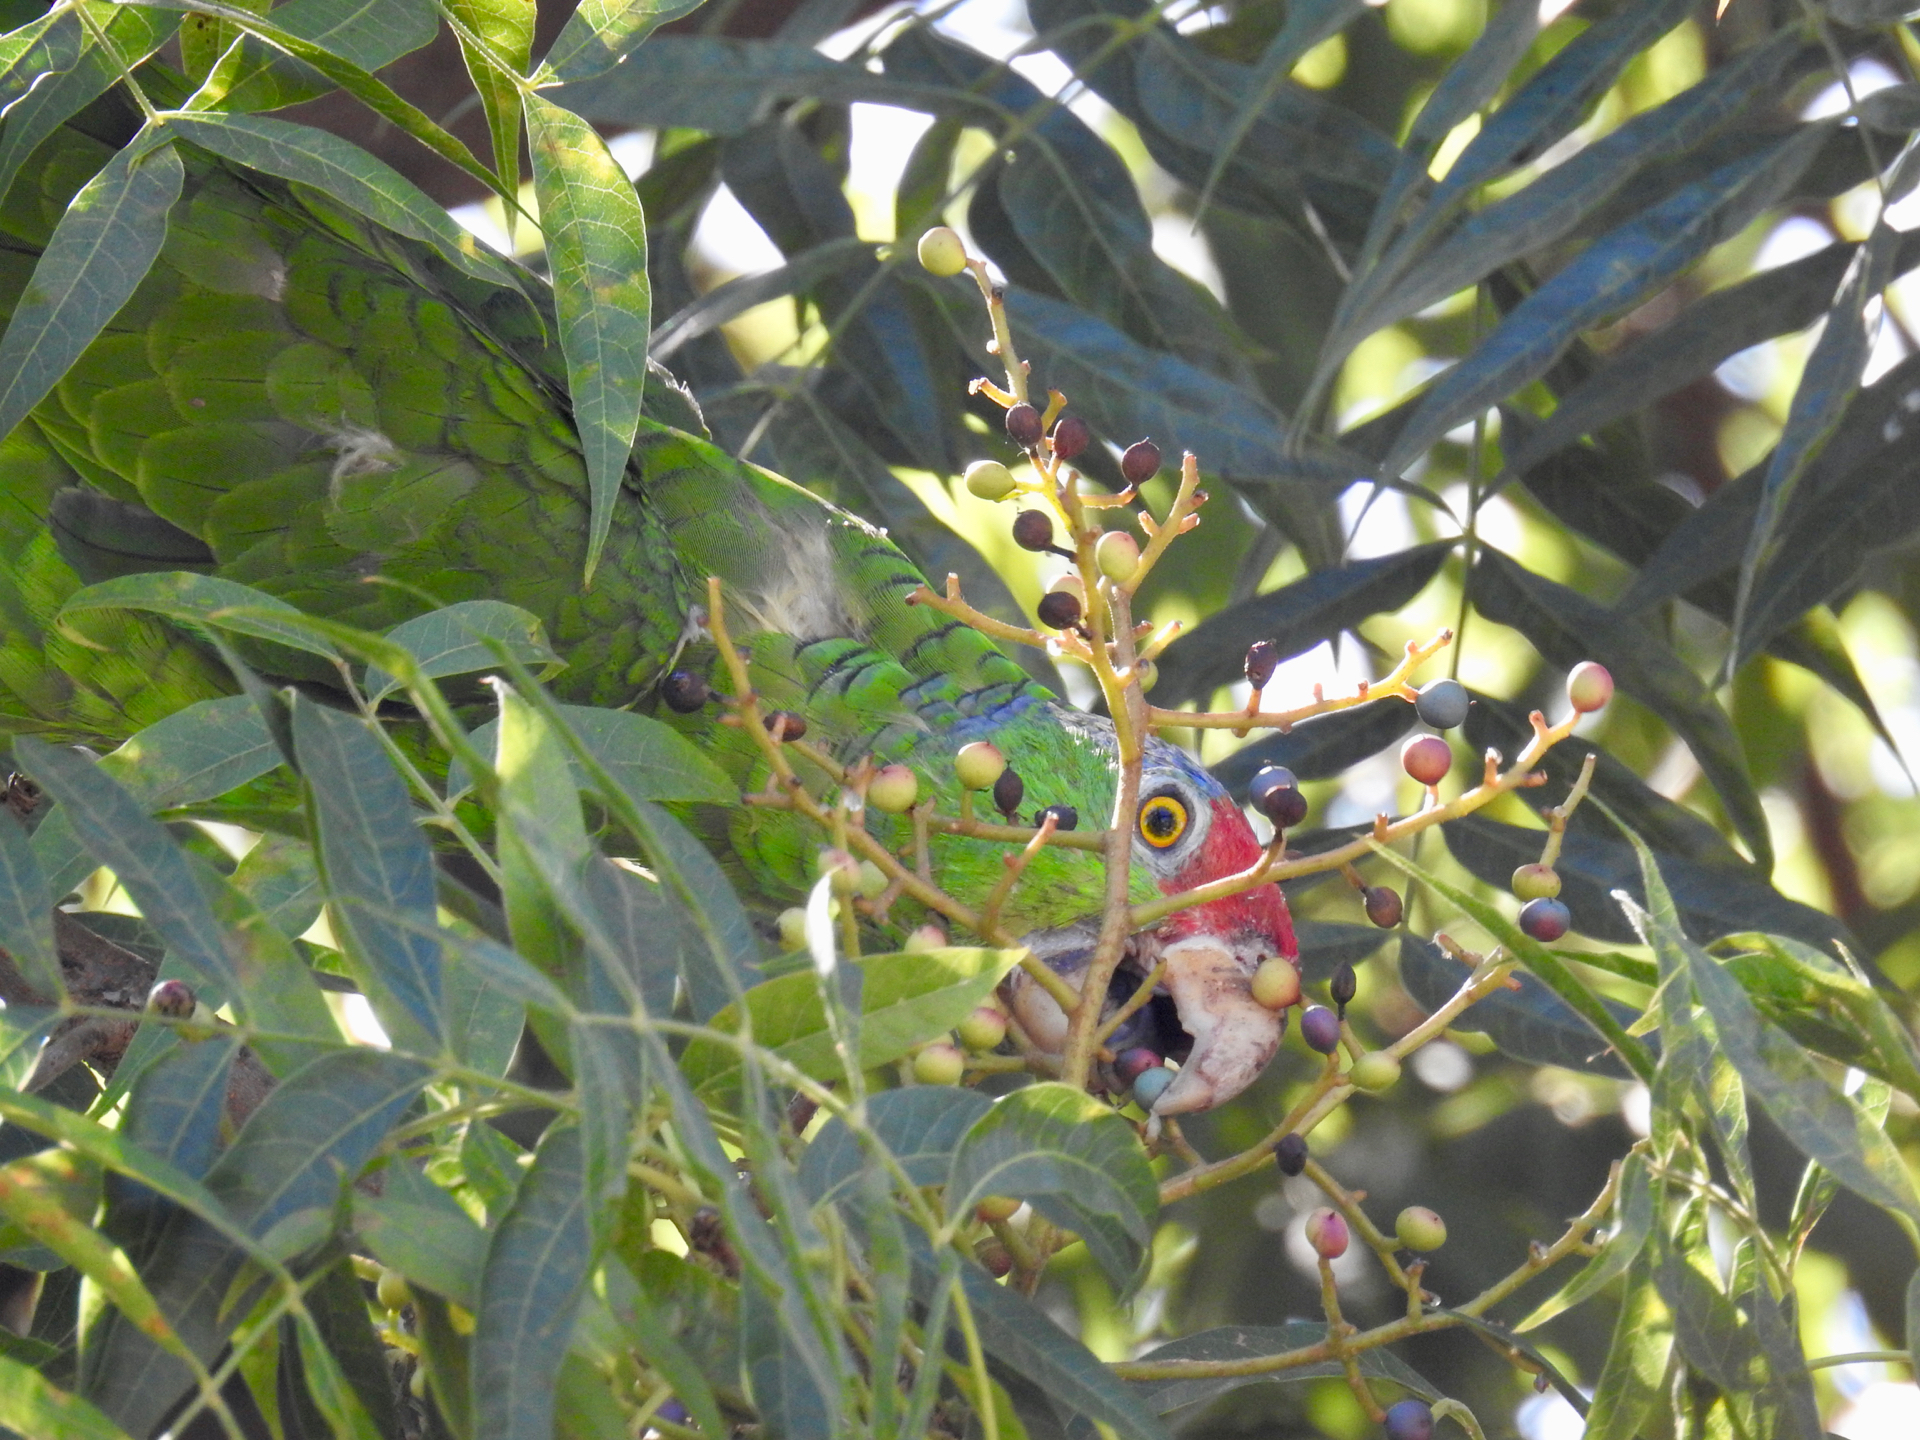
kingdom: Animalia
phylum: Chordata
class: Aves
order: Psittaciformes
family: Psittacidae
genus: Amazona
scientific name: Amazona viridigenalis
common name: Red-crowned amazon
